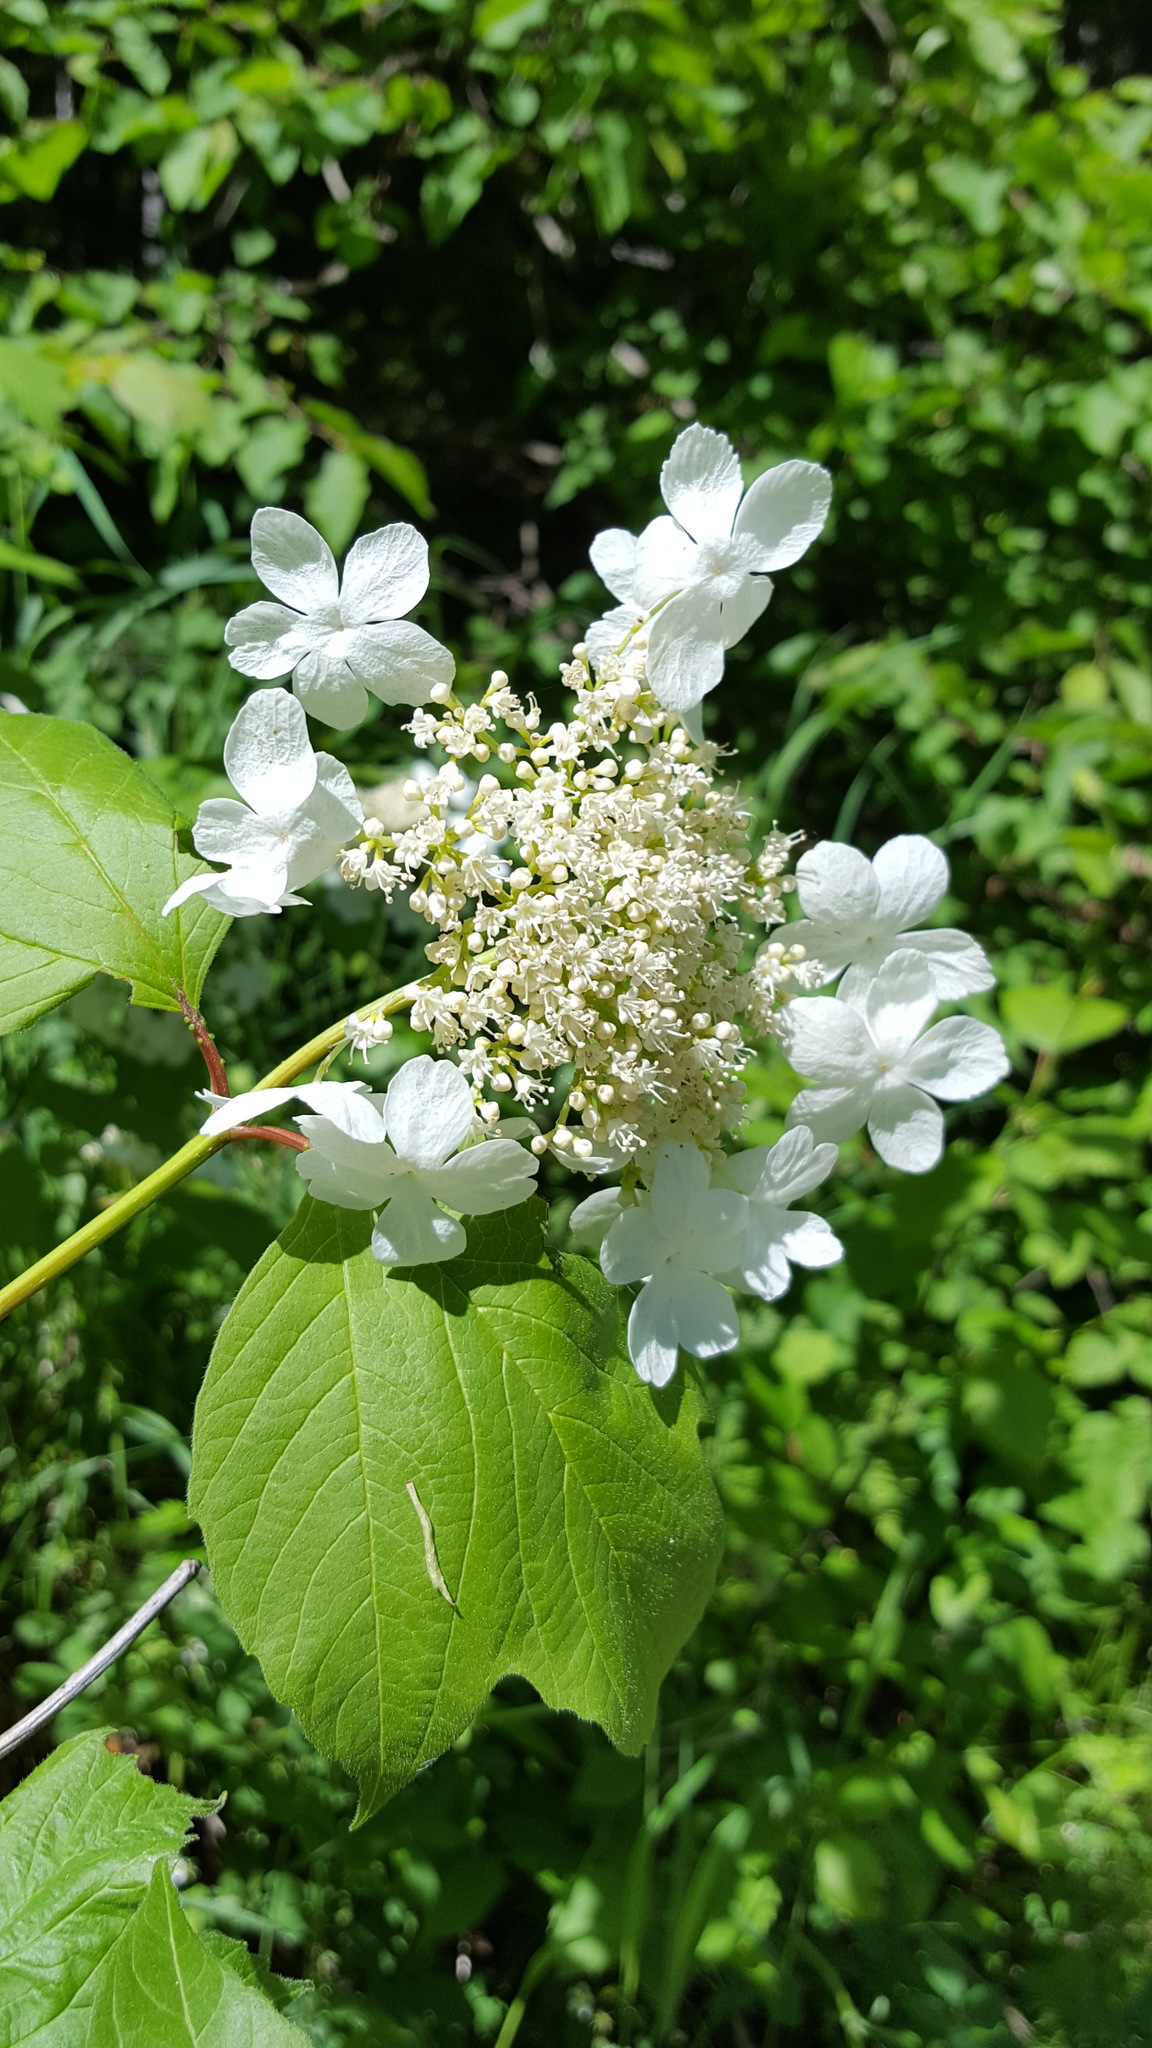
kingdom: Plantae
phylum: Tracheophyta
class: Magnoliopsida
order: Dipsacales
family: Viburnaceae
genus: Viburnum
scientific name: Viburnum trilobum
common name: American cranberrybush
